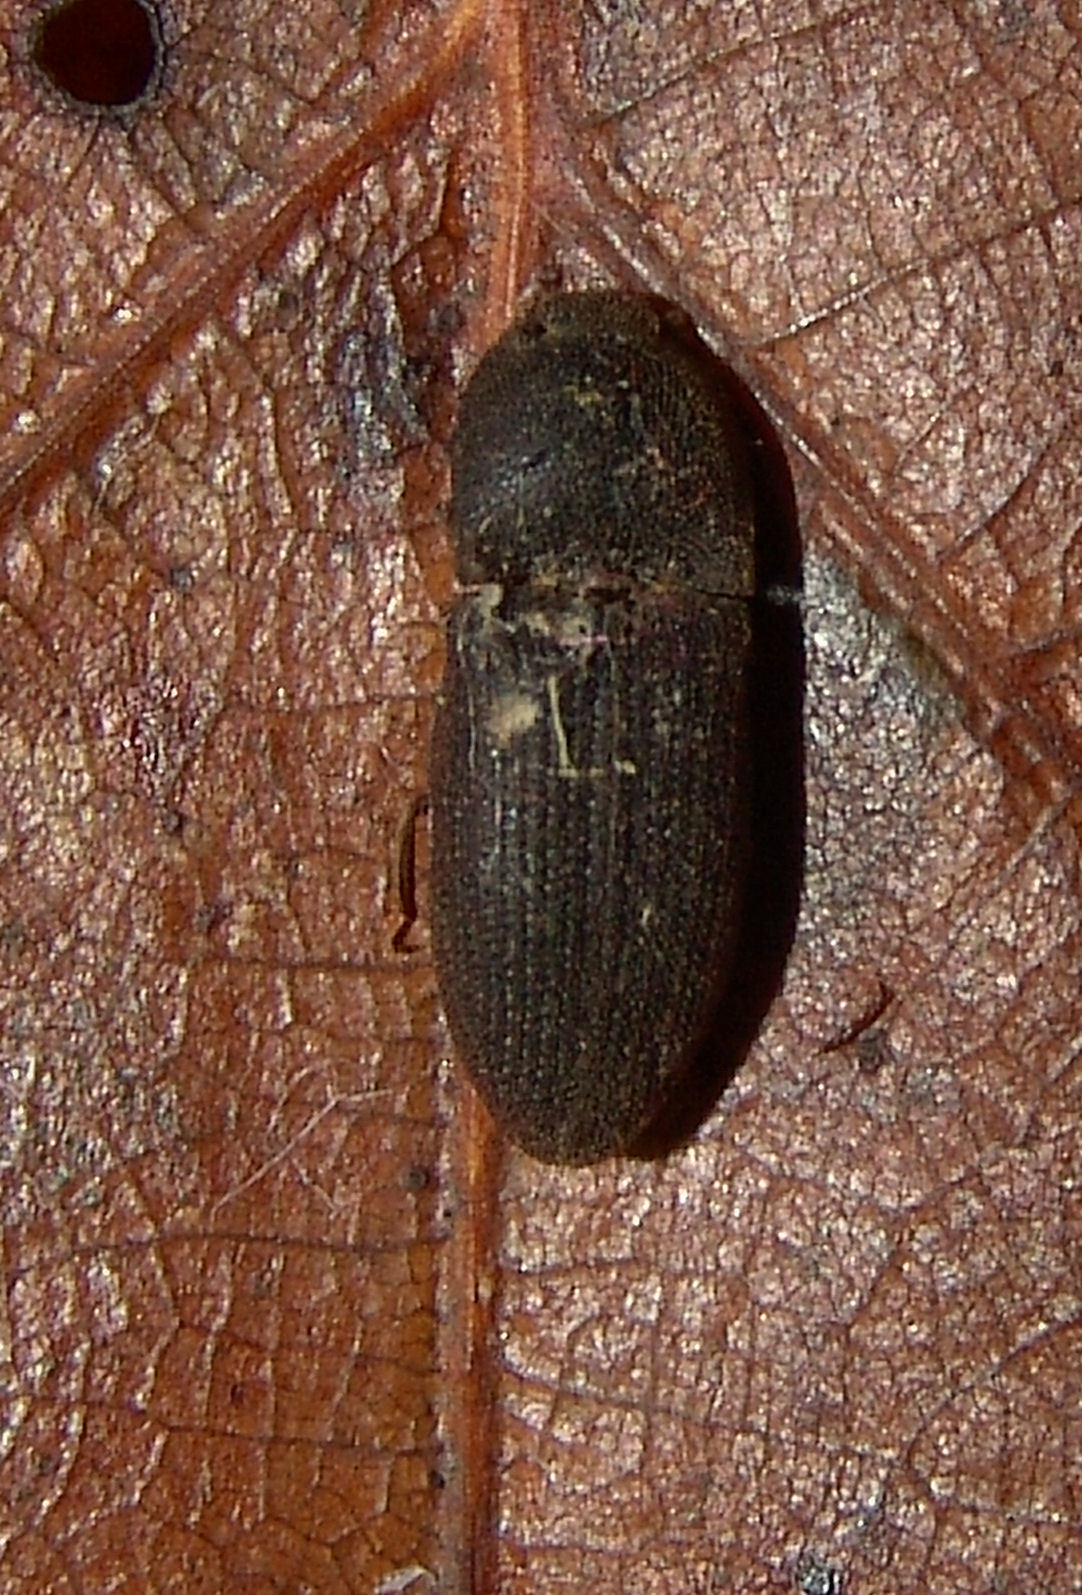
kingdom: Animalia
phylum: Arthropoda
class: Insecta
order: Coleoptera
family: Elateridae
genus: Agrypnus
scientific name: Agrypnus rectangularis
